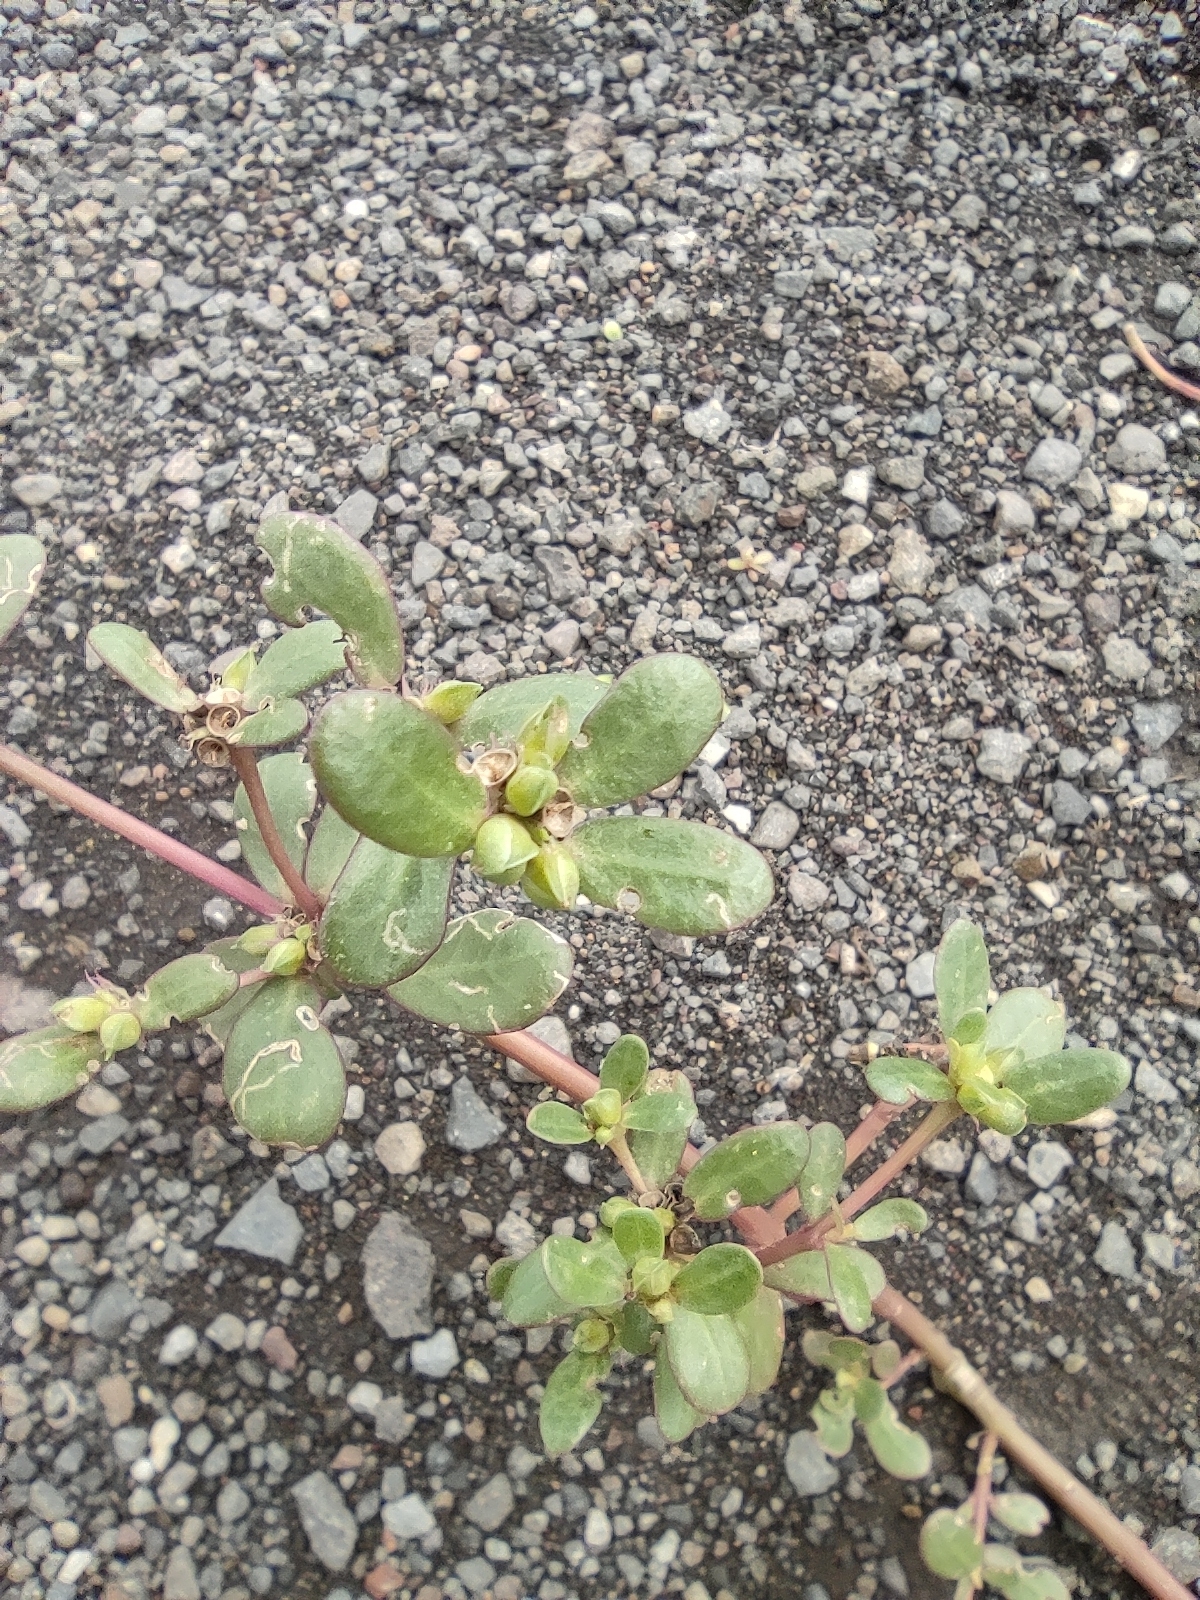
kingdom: Plantae
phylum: Tracheophyta
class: Magnoliopsida
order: Caryophyllales
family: Portulacaceae
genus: Portulaca
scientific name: Portulaca oleracea
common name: Common purslane
